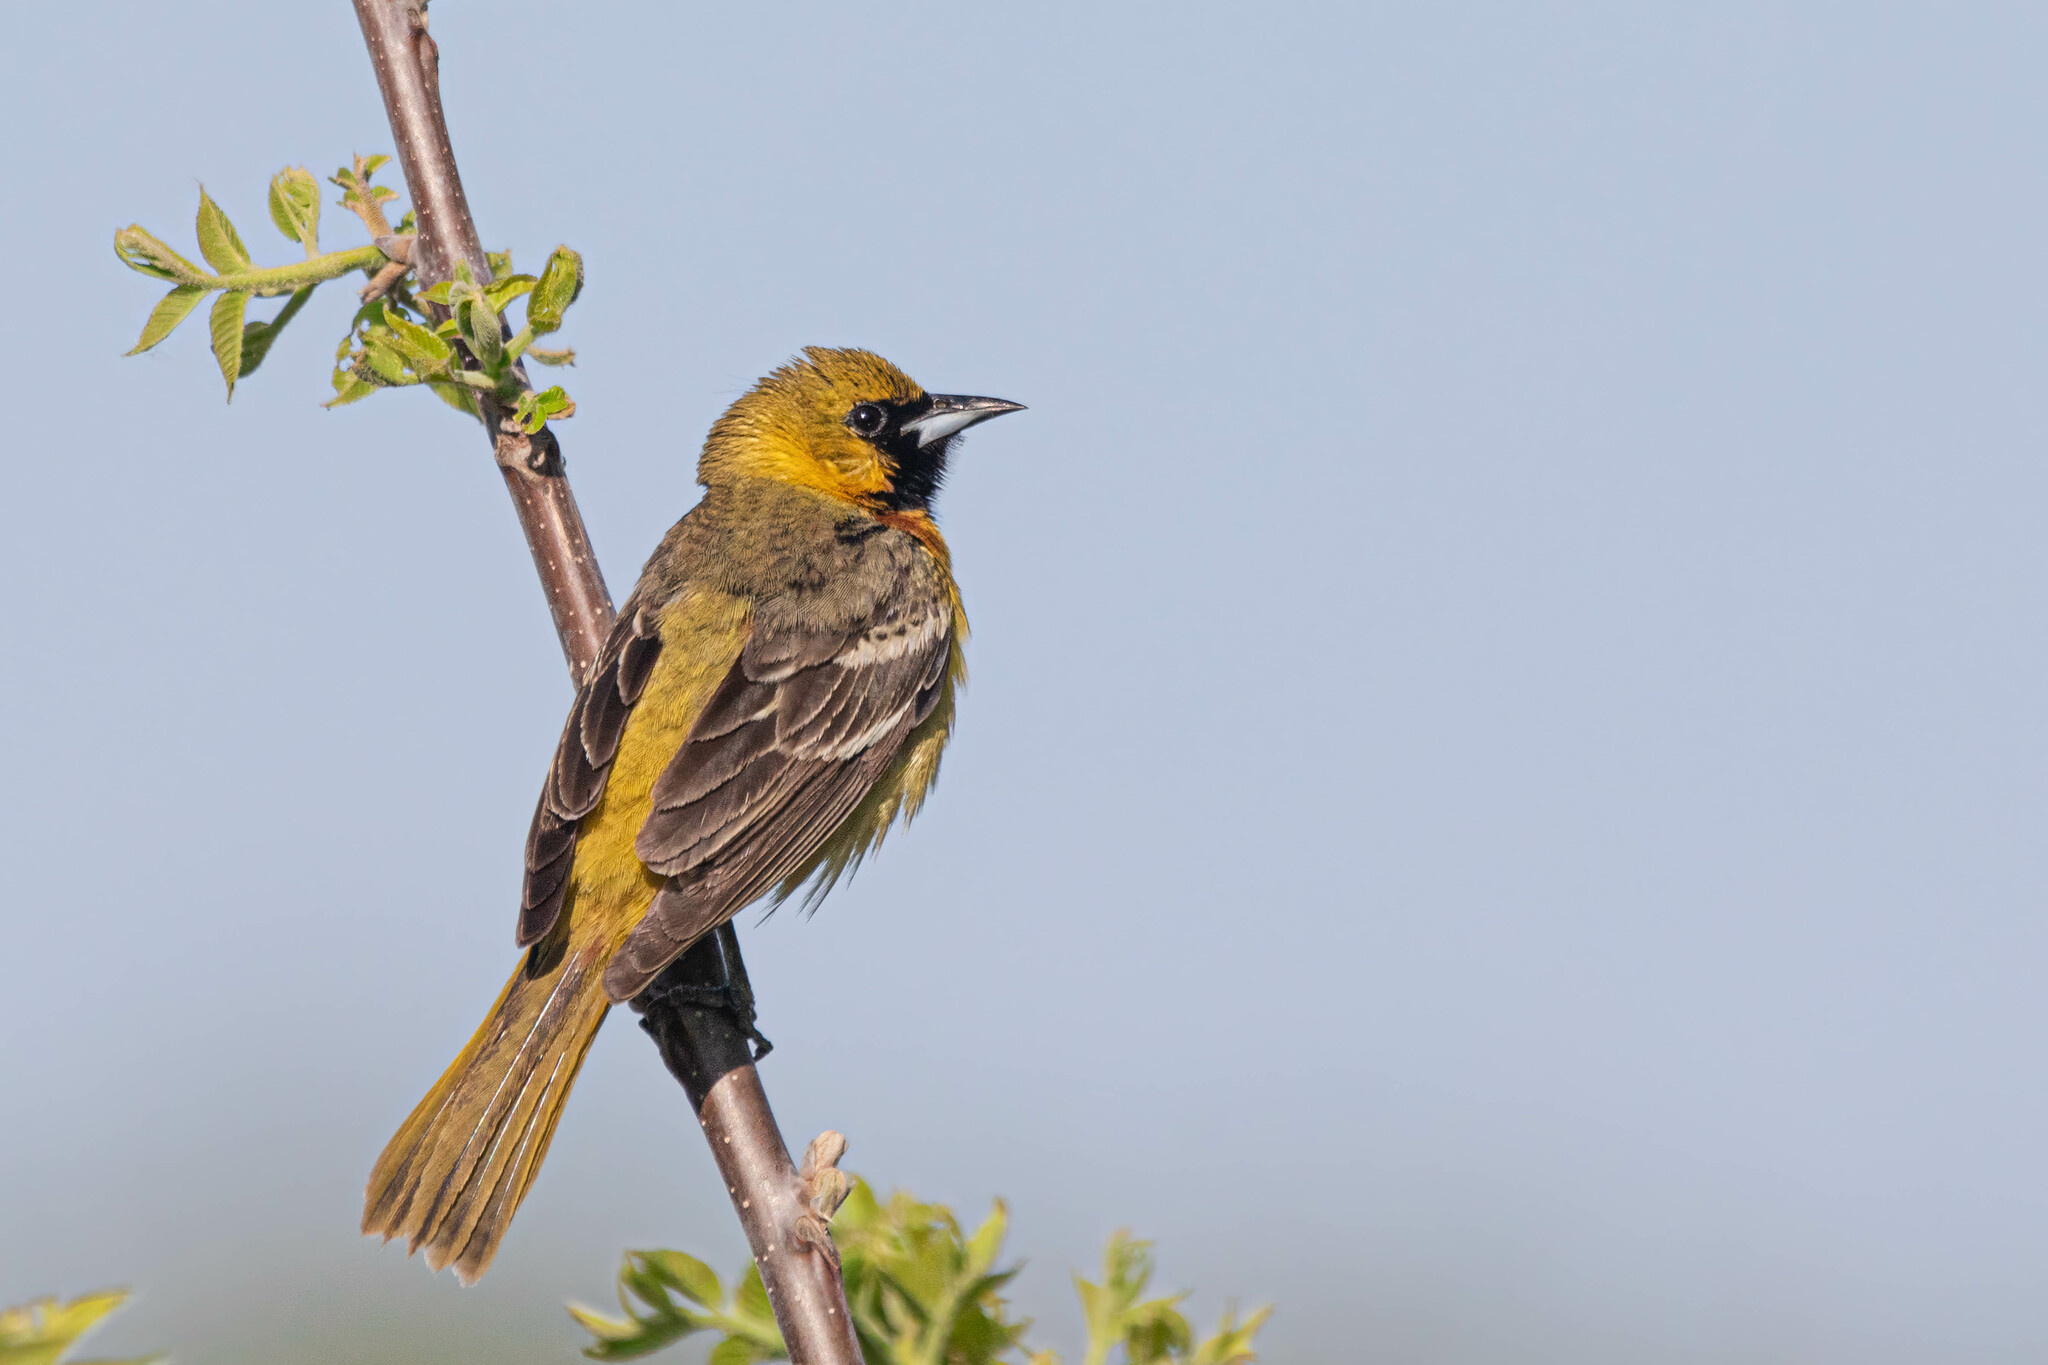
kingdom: Animalia
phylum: Chordata
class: Aves
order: Passeriformes
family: Icteridae
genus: Icterus
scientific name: Icterus spurius
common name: Orchard oriole
